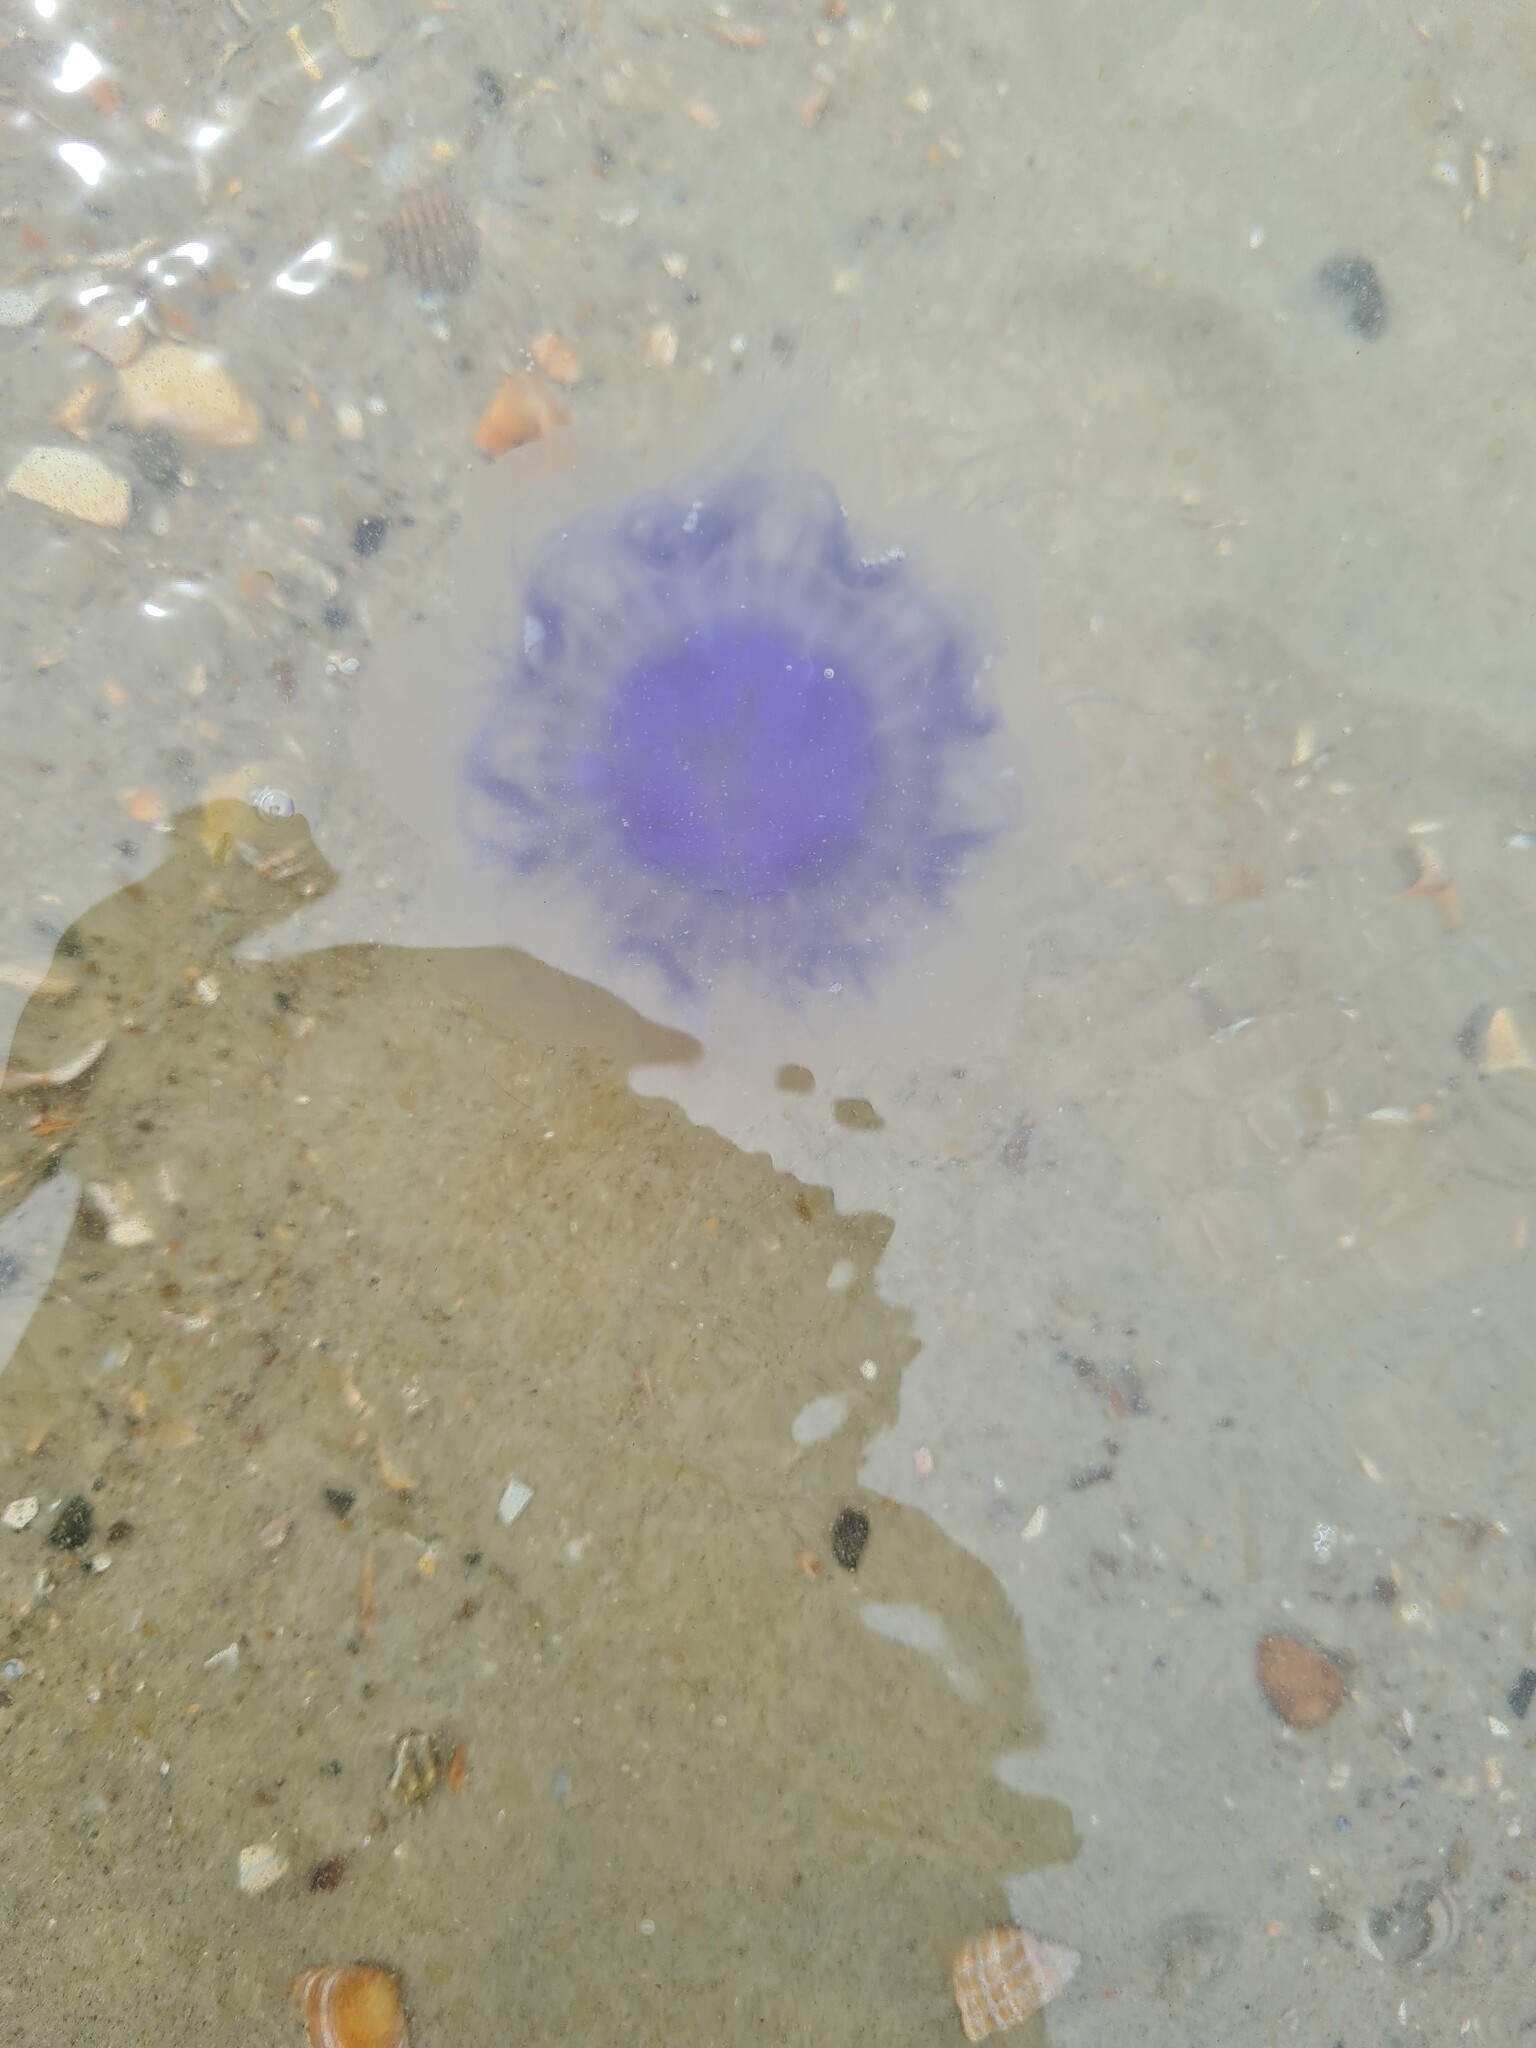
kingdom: Animalia
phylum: Cnidaria
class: Scyphozoa
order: Semaeostomeae
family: Cyaneidae
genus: Cyanea
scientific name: Cyanea lamarckii
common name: Blue jellyfish
